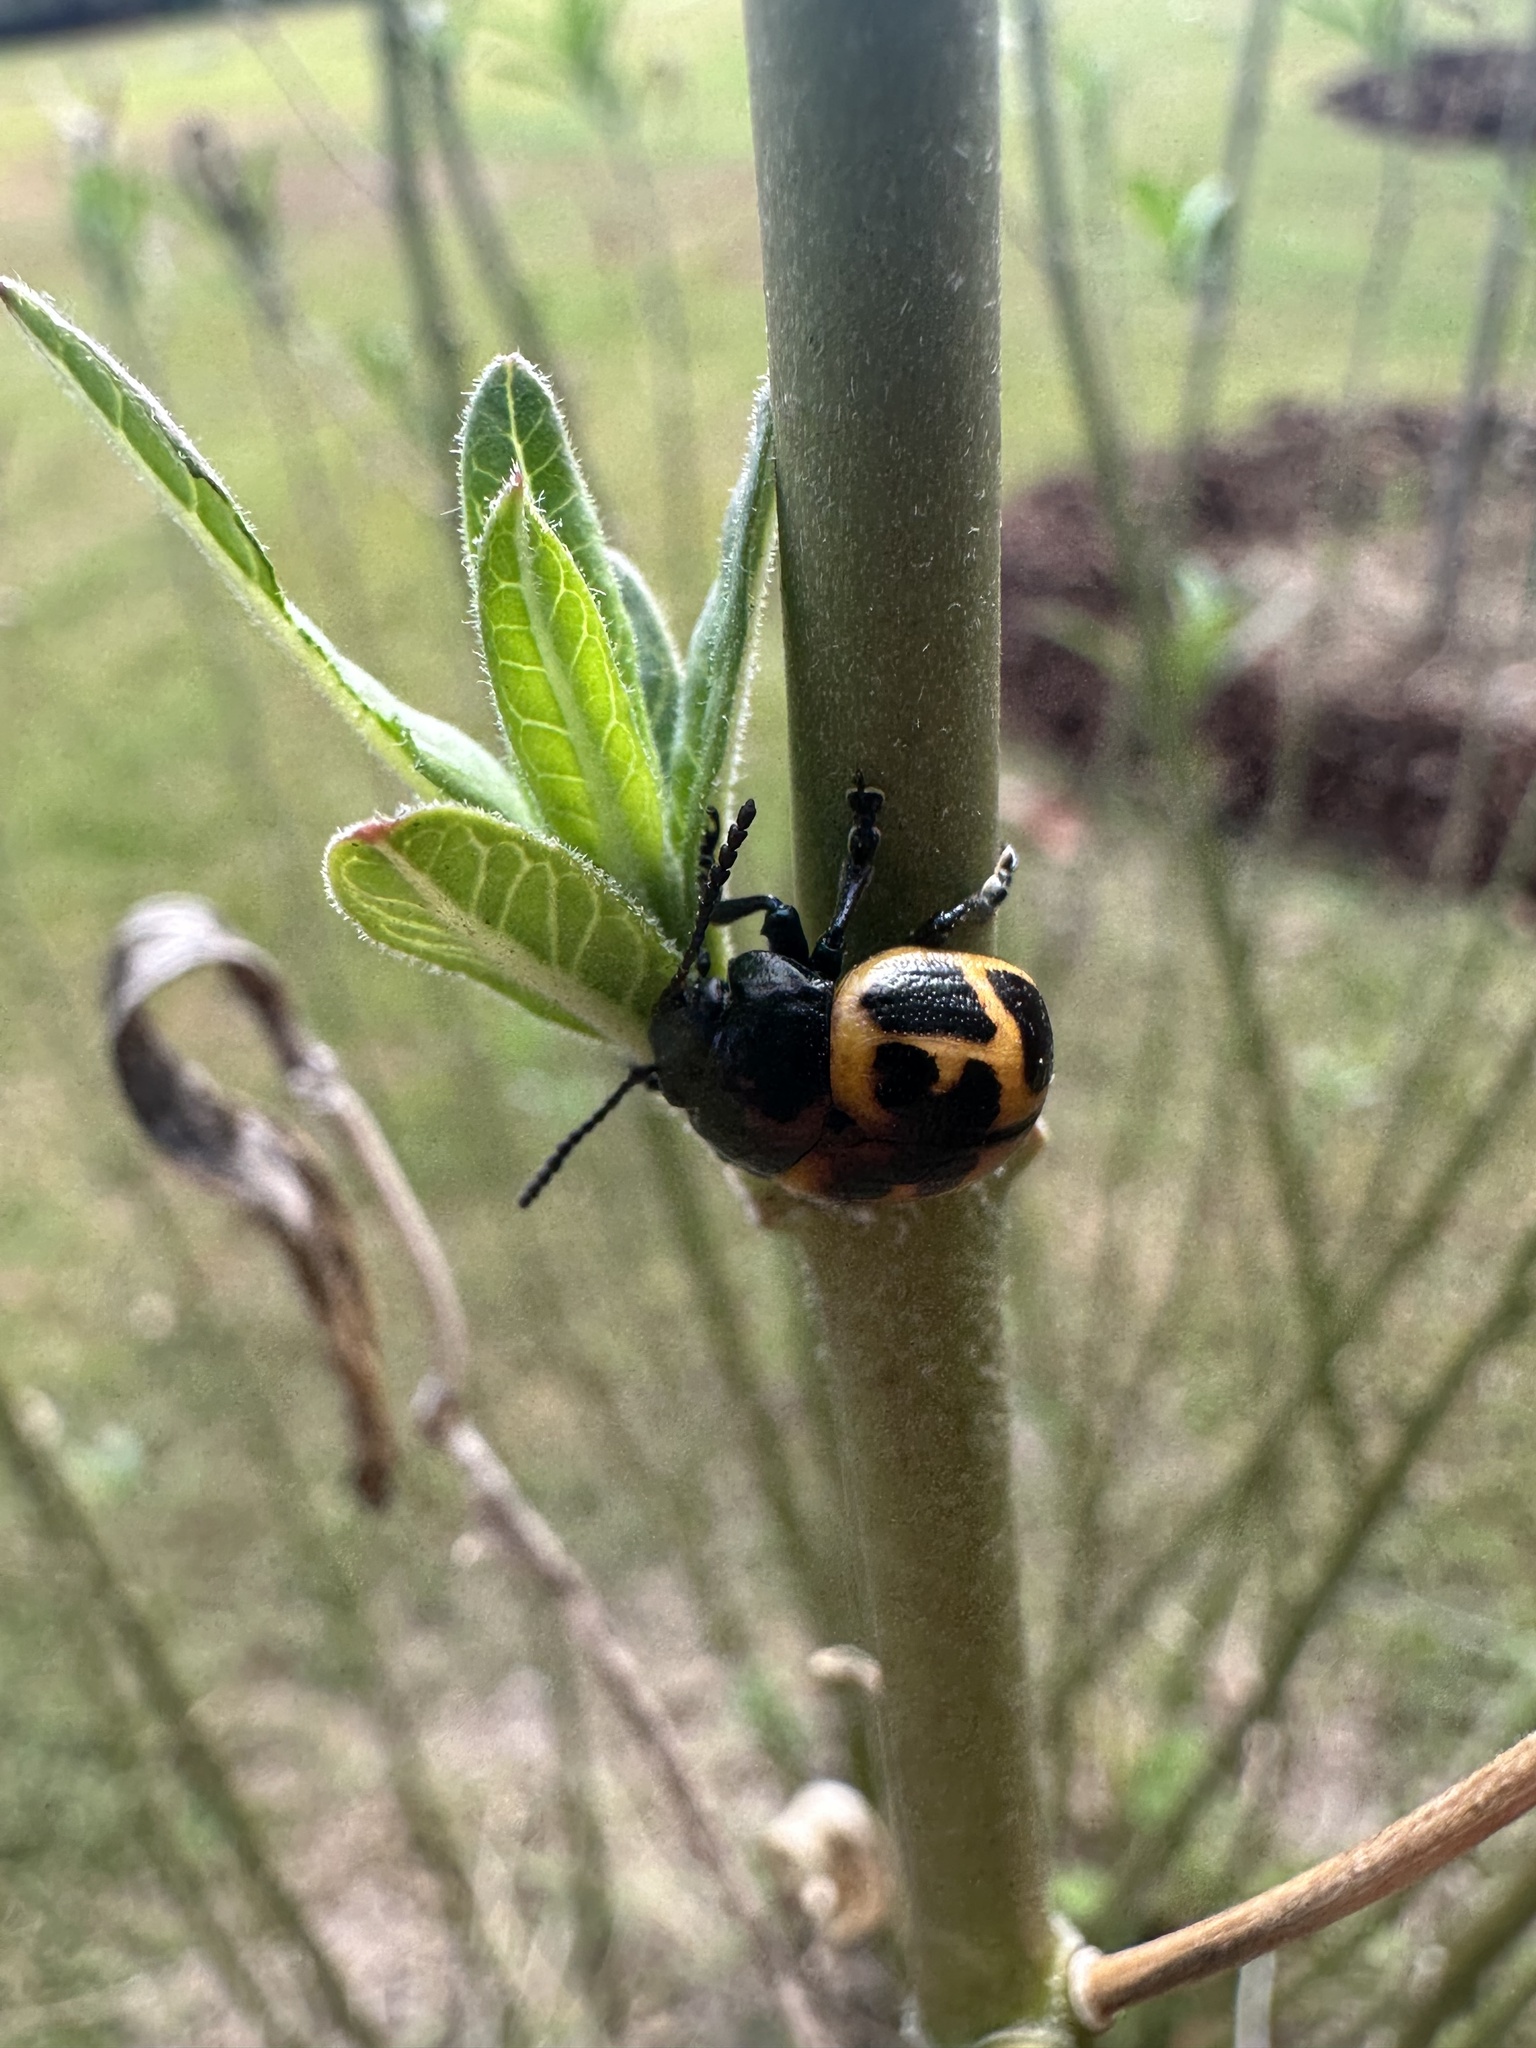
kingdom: Animalia
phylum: Arthropoda
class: Insecta
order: Coleoptera
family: Chrysomelidae
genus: Labidomera
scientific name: Labidomera clivicollis
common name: Swamp milkweed leaf beetle
